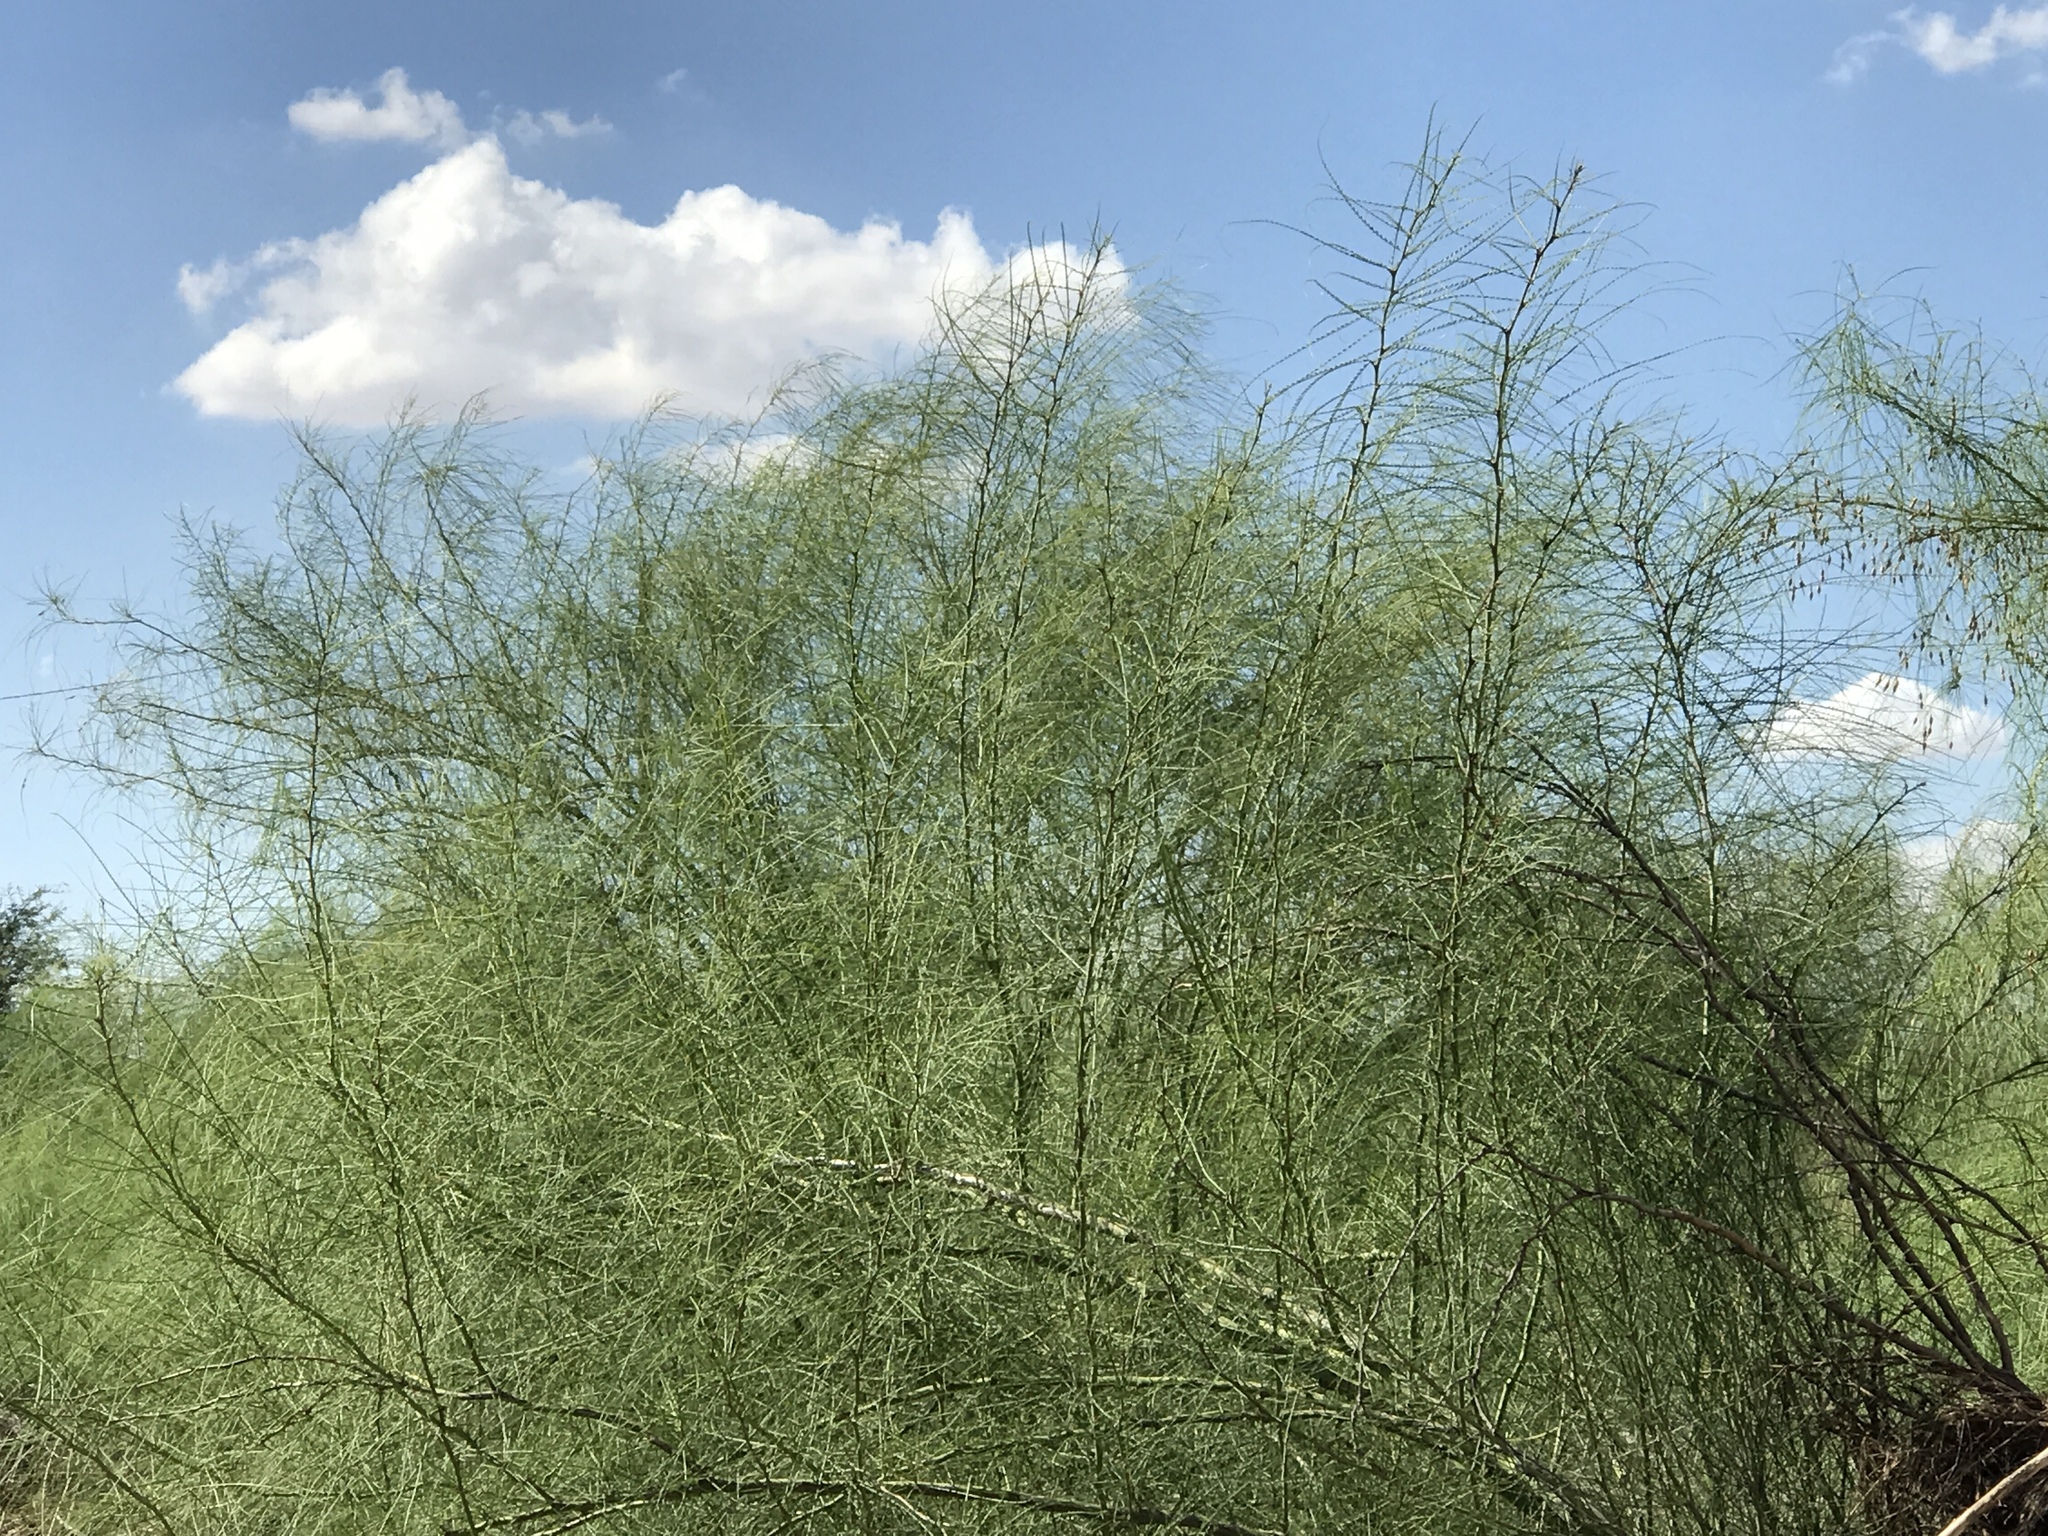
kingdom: Plantae
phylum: Tracheophyta
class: Magnoliopsida
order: Fabales
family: Fabaceae
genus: Parkinsonia
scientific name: Parkinsonia aculeata
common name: Jerusalem thorn
